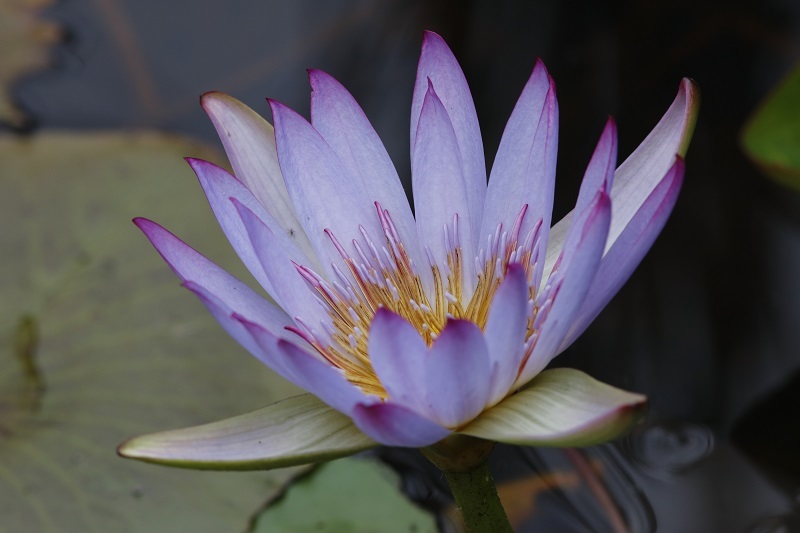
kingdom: Plantae
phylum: Tracheophyta
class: Magnoliopsida
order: Nymphaeales
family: Nymphaeaceae
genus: Nymphaea
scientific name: Nymphaea nouchali
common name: Blue lotus
